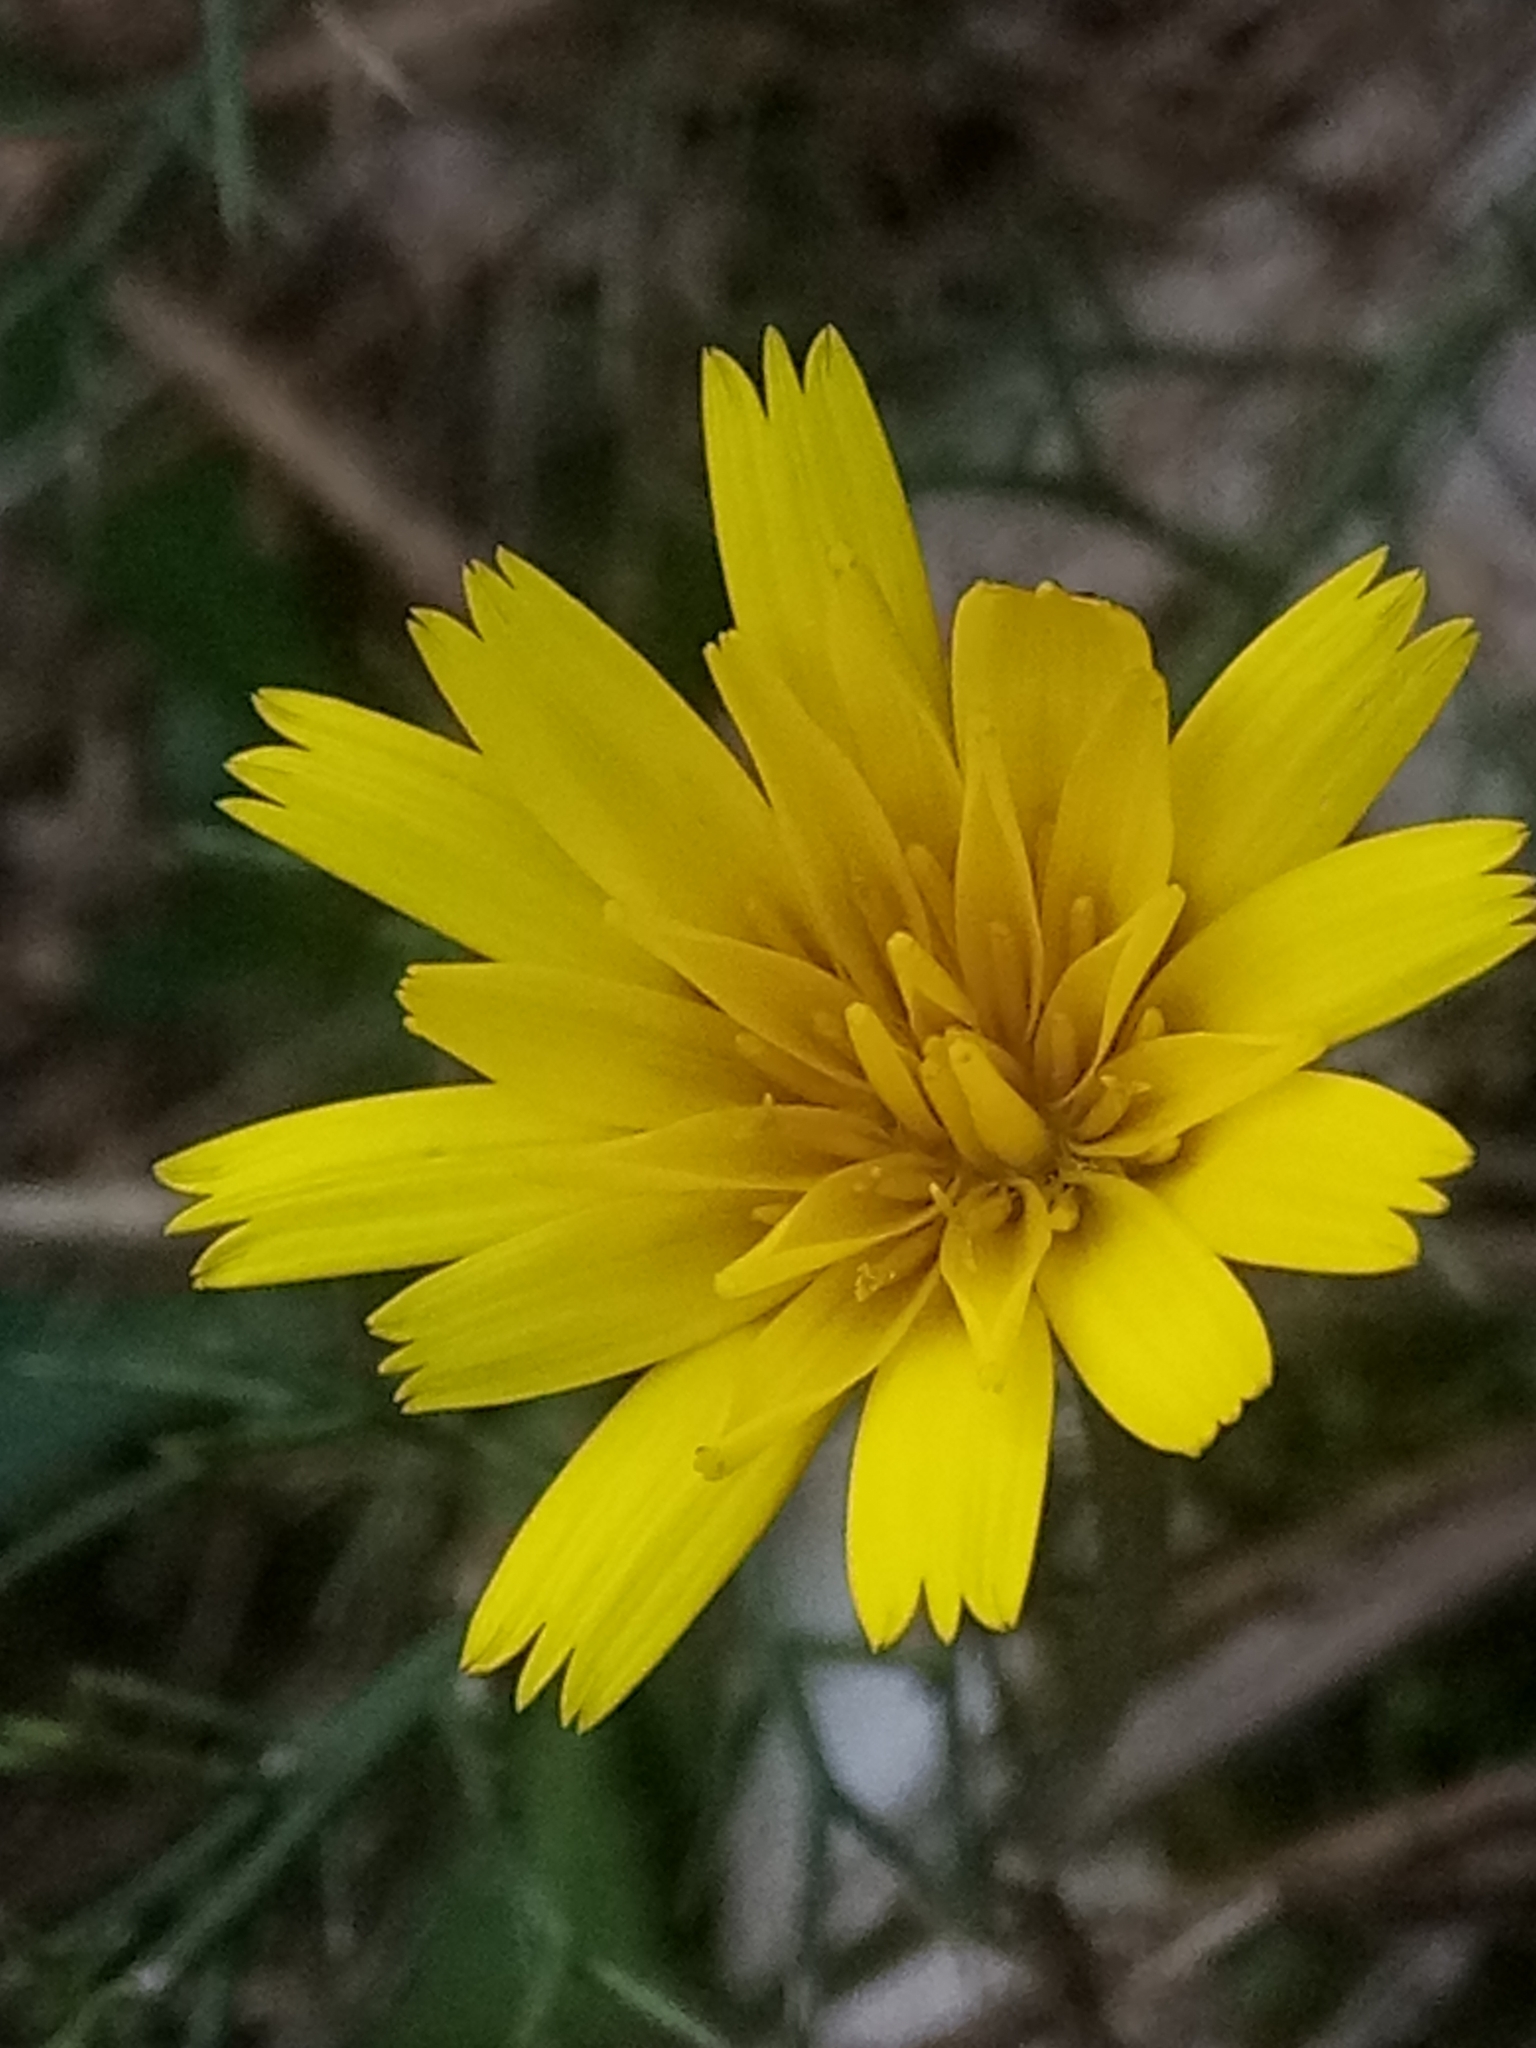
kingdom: Plantae
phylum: Tracheophyta
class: Magnoliopsida
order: Asterales
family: Asteraceae
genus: Leontodon
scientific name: Leontodon tuberosus
